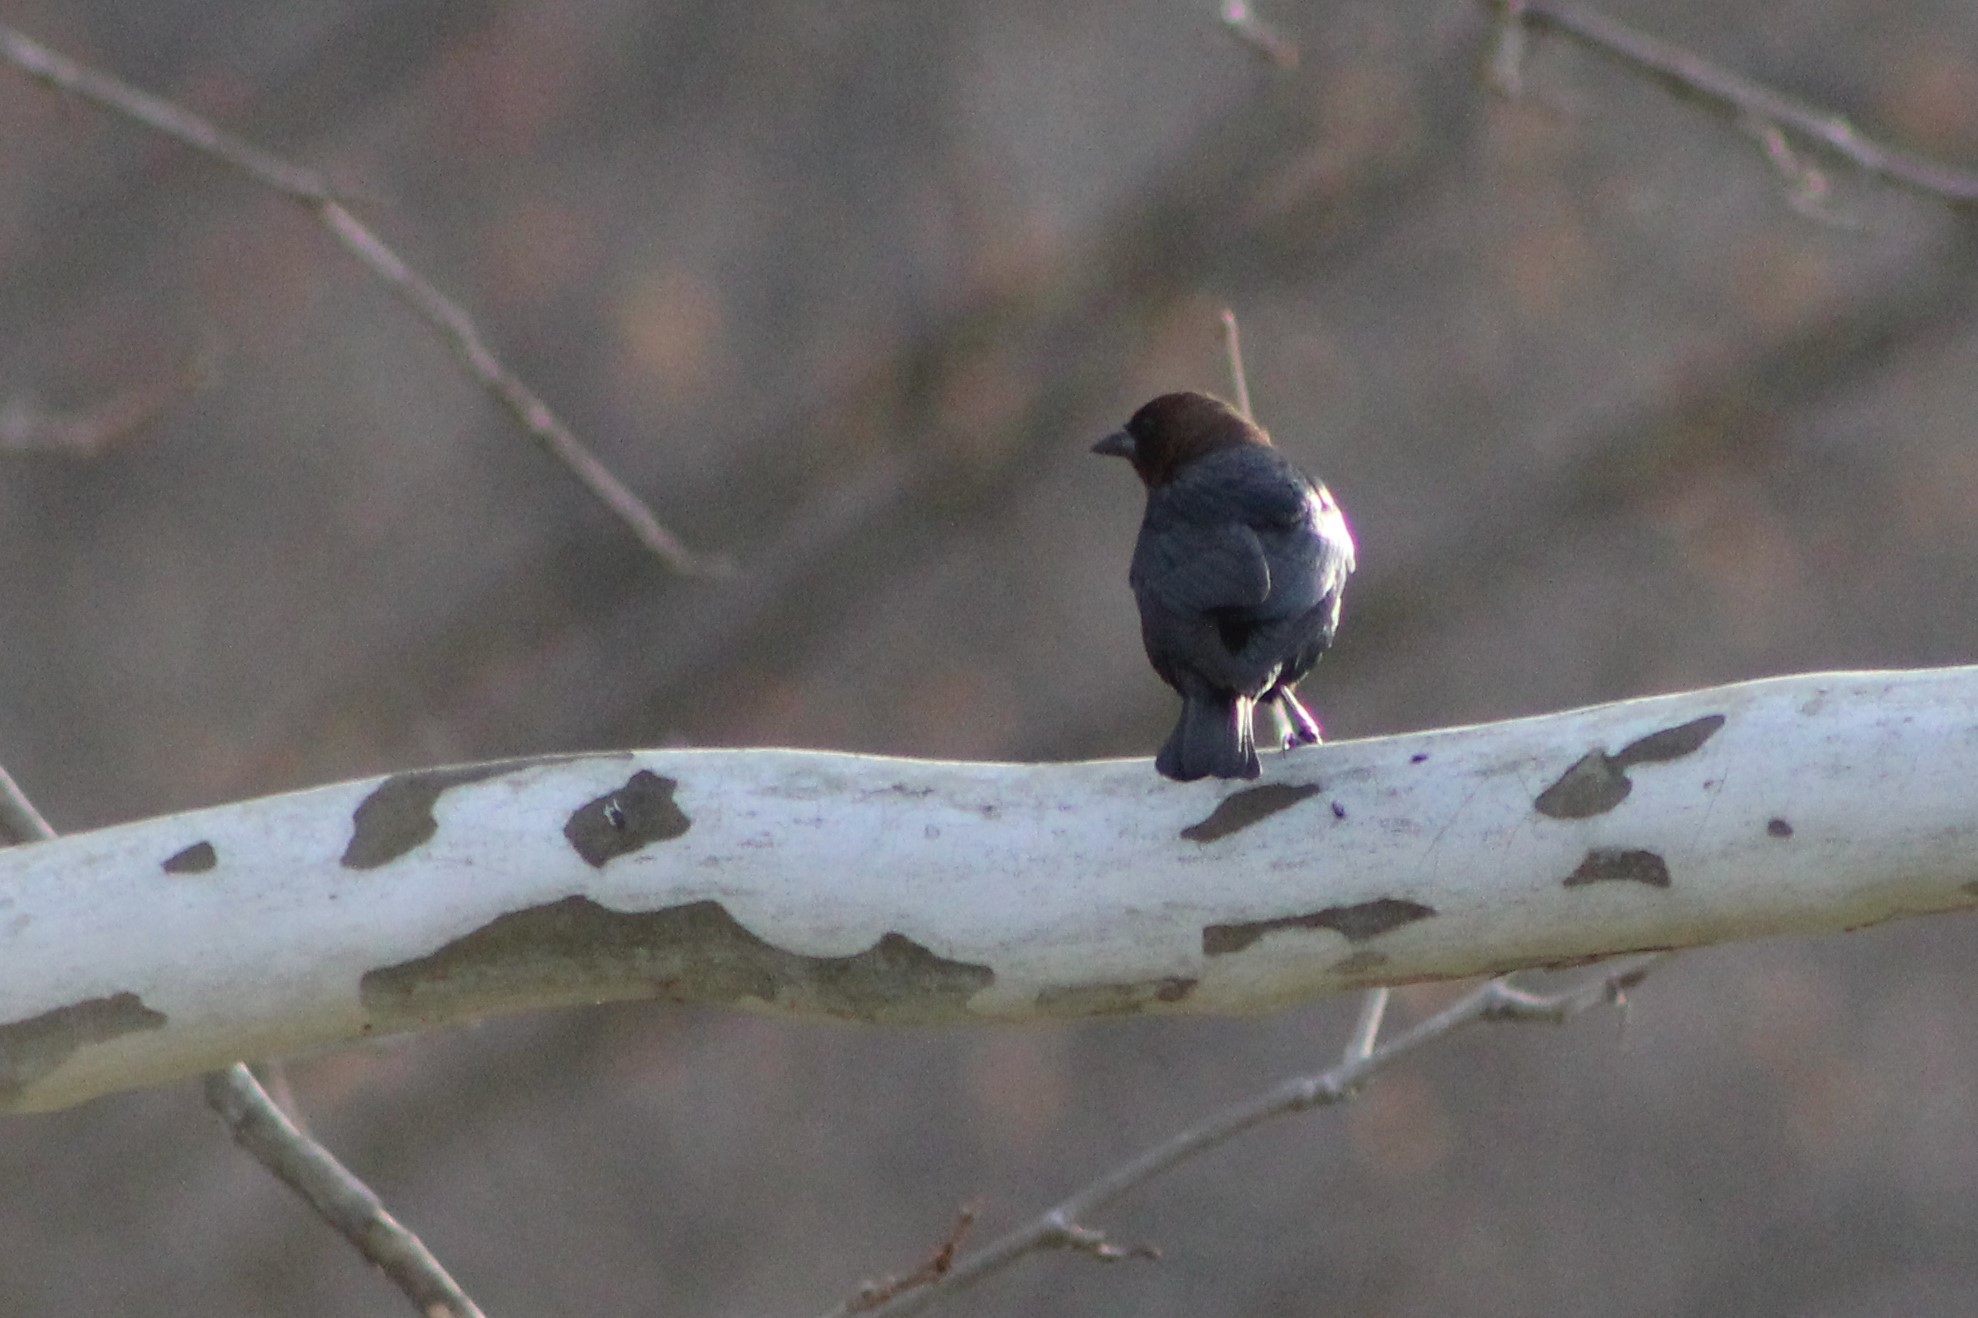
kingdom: Animalia
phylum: Chordata
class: Aves
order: Passeriformes
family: Icteridae
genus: Molothrus
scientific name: Molothrus ater
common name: Brown-headed cowbird
